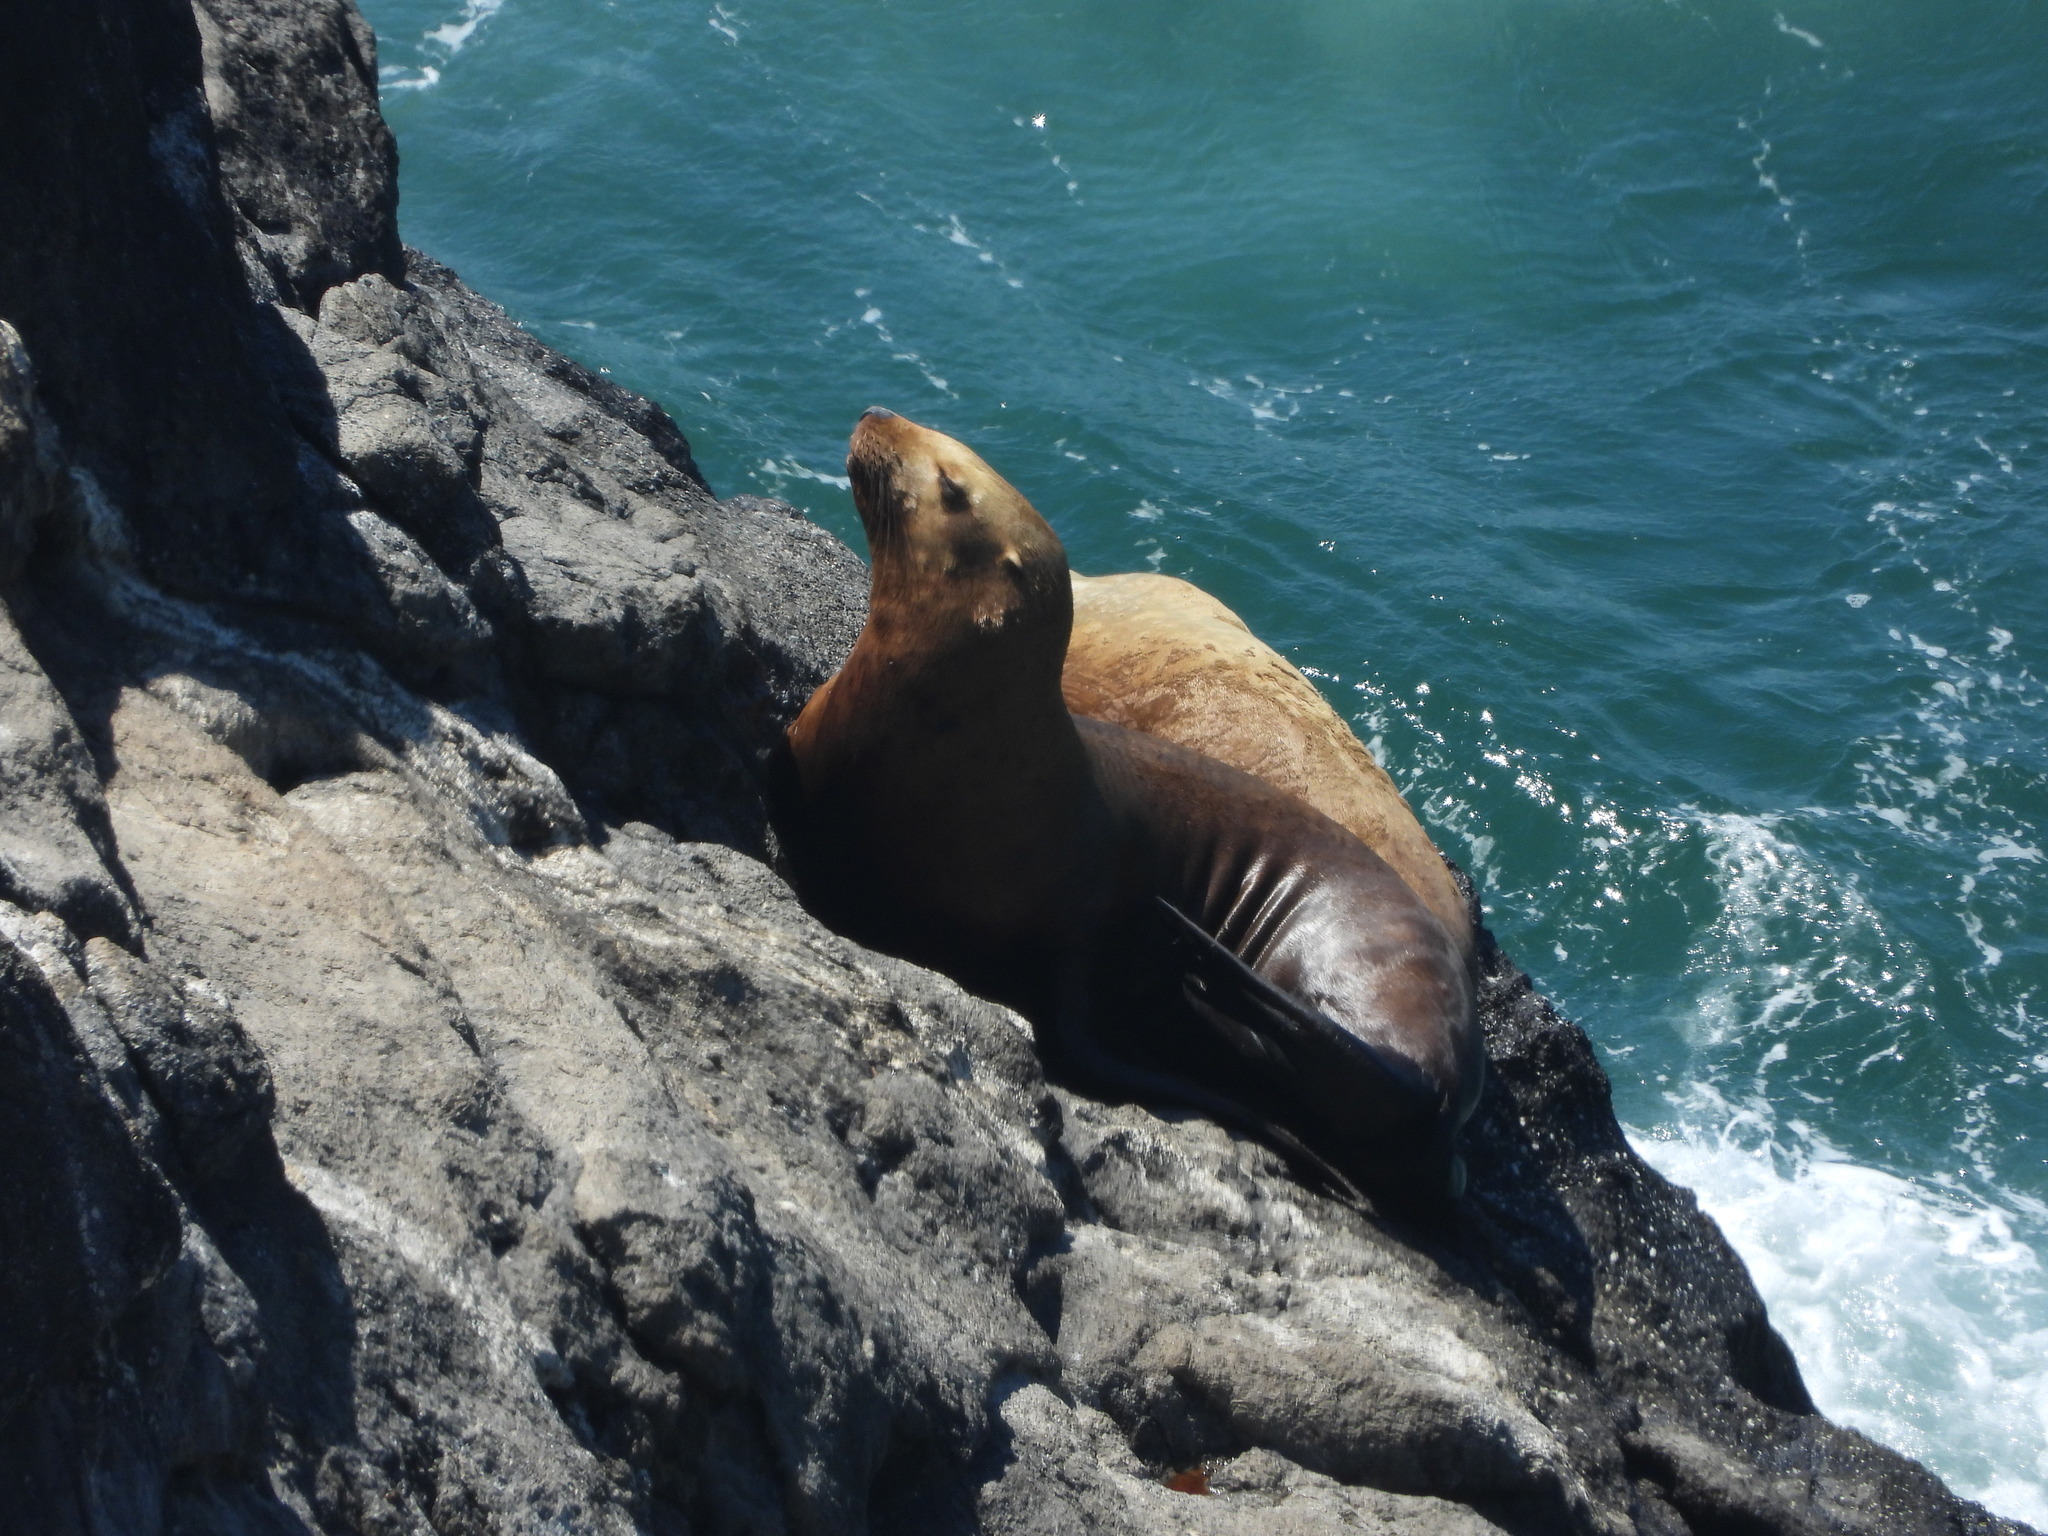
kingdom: Animalia
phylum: Chordata
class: Mammalia
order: Carnivora
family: Otariidae
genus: Eumetopias
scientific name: Eumetopias jubatus
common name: Steller sea lion
